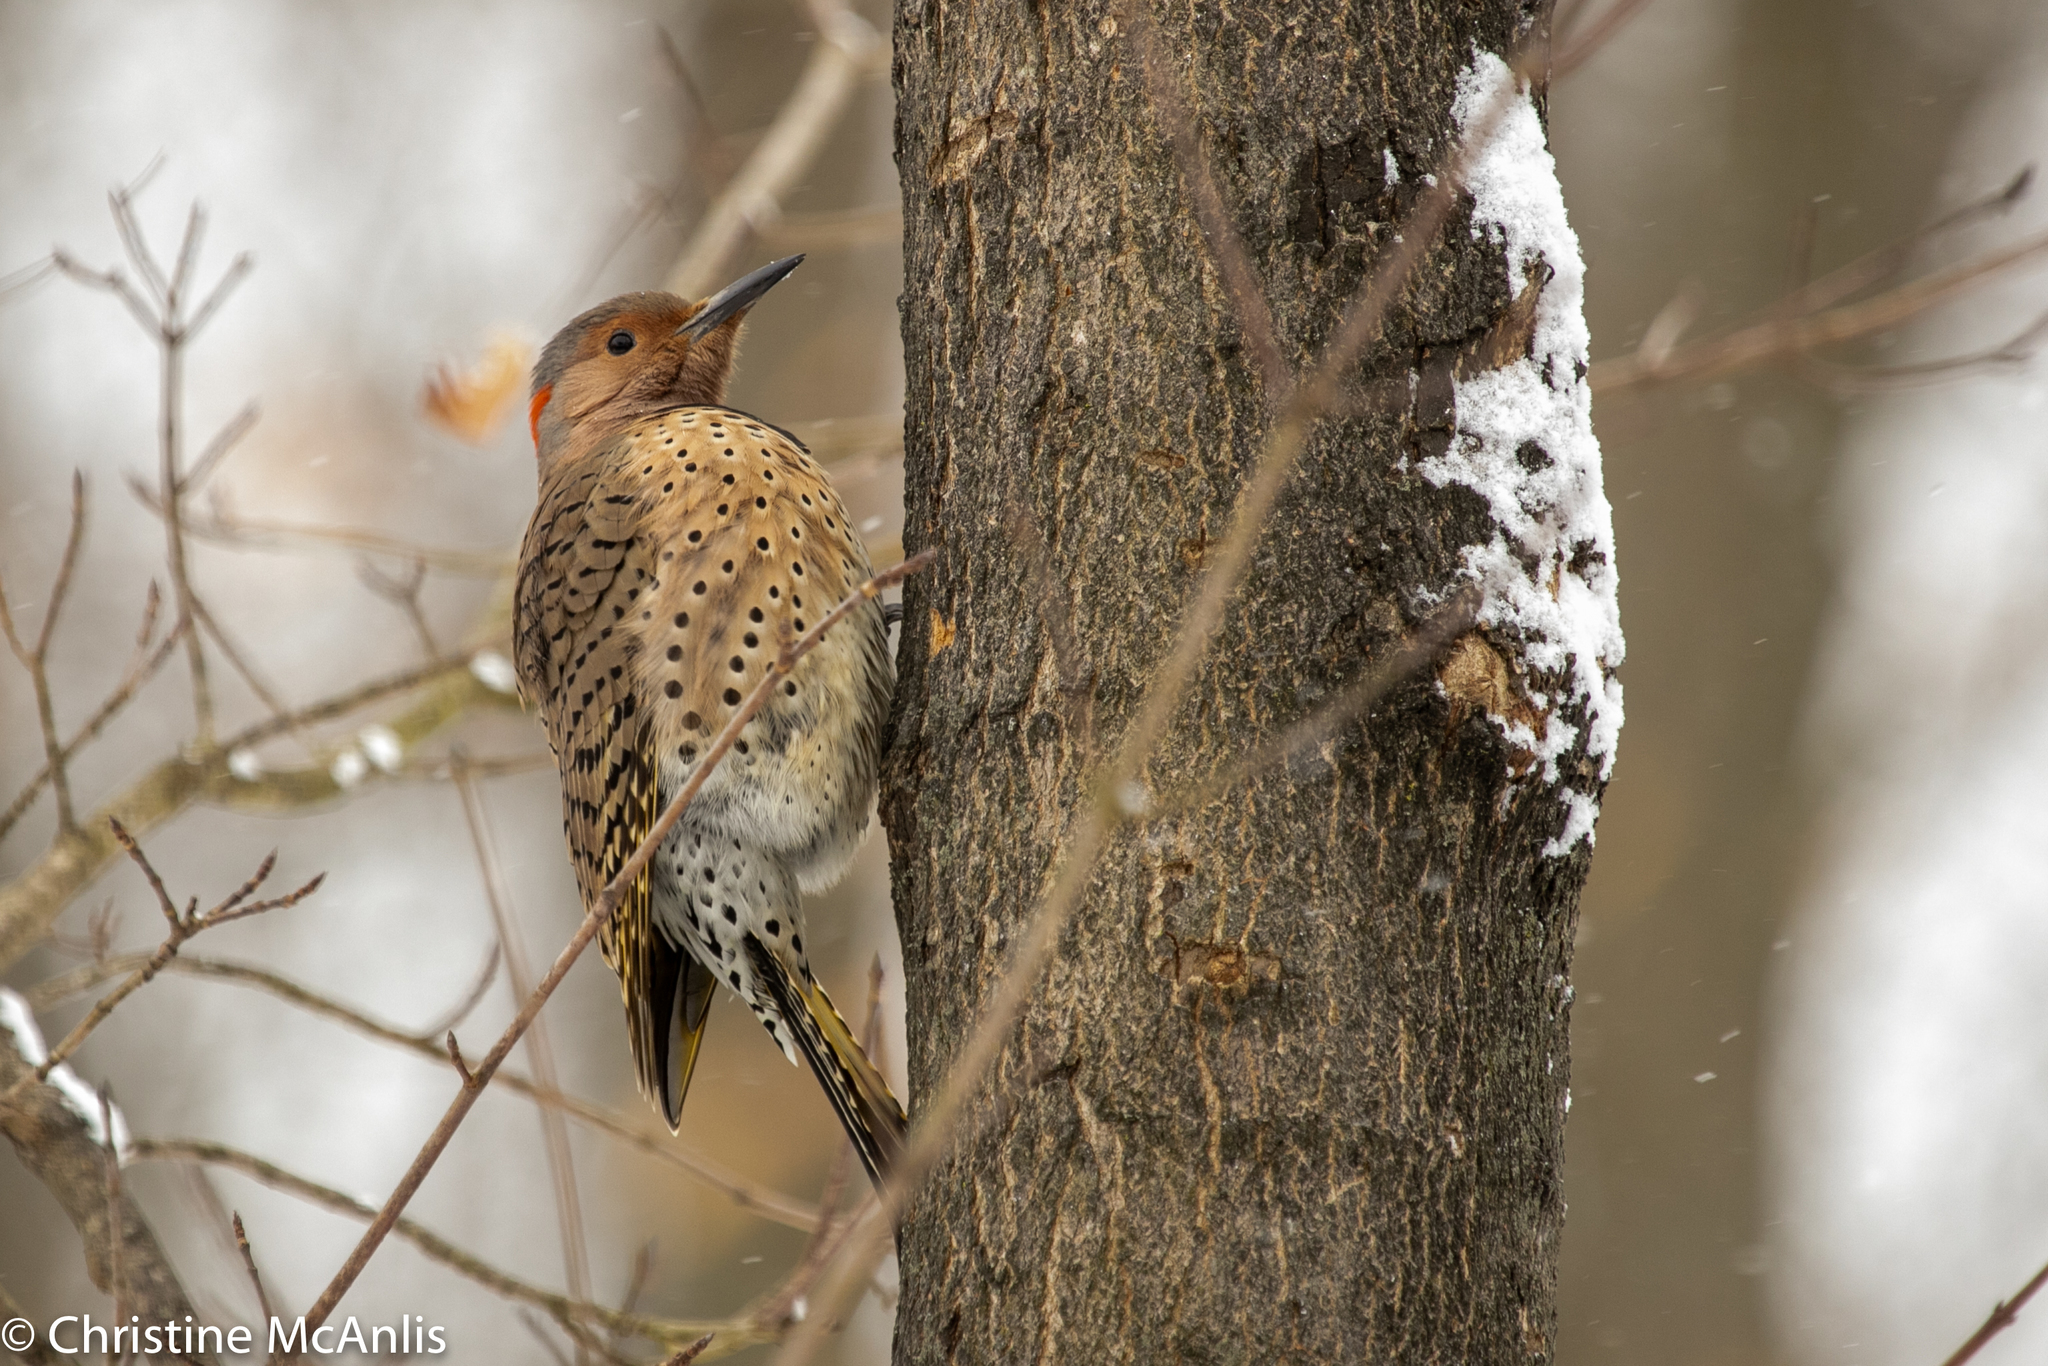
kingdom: Animalia
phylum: Chordata
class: Aves
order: Piciformes
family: Picidae
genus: Colaptes
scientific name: Colaptes auratus
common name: Northern flicker
